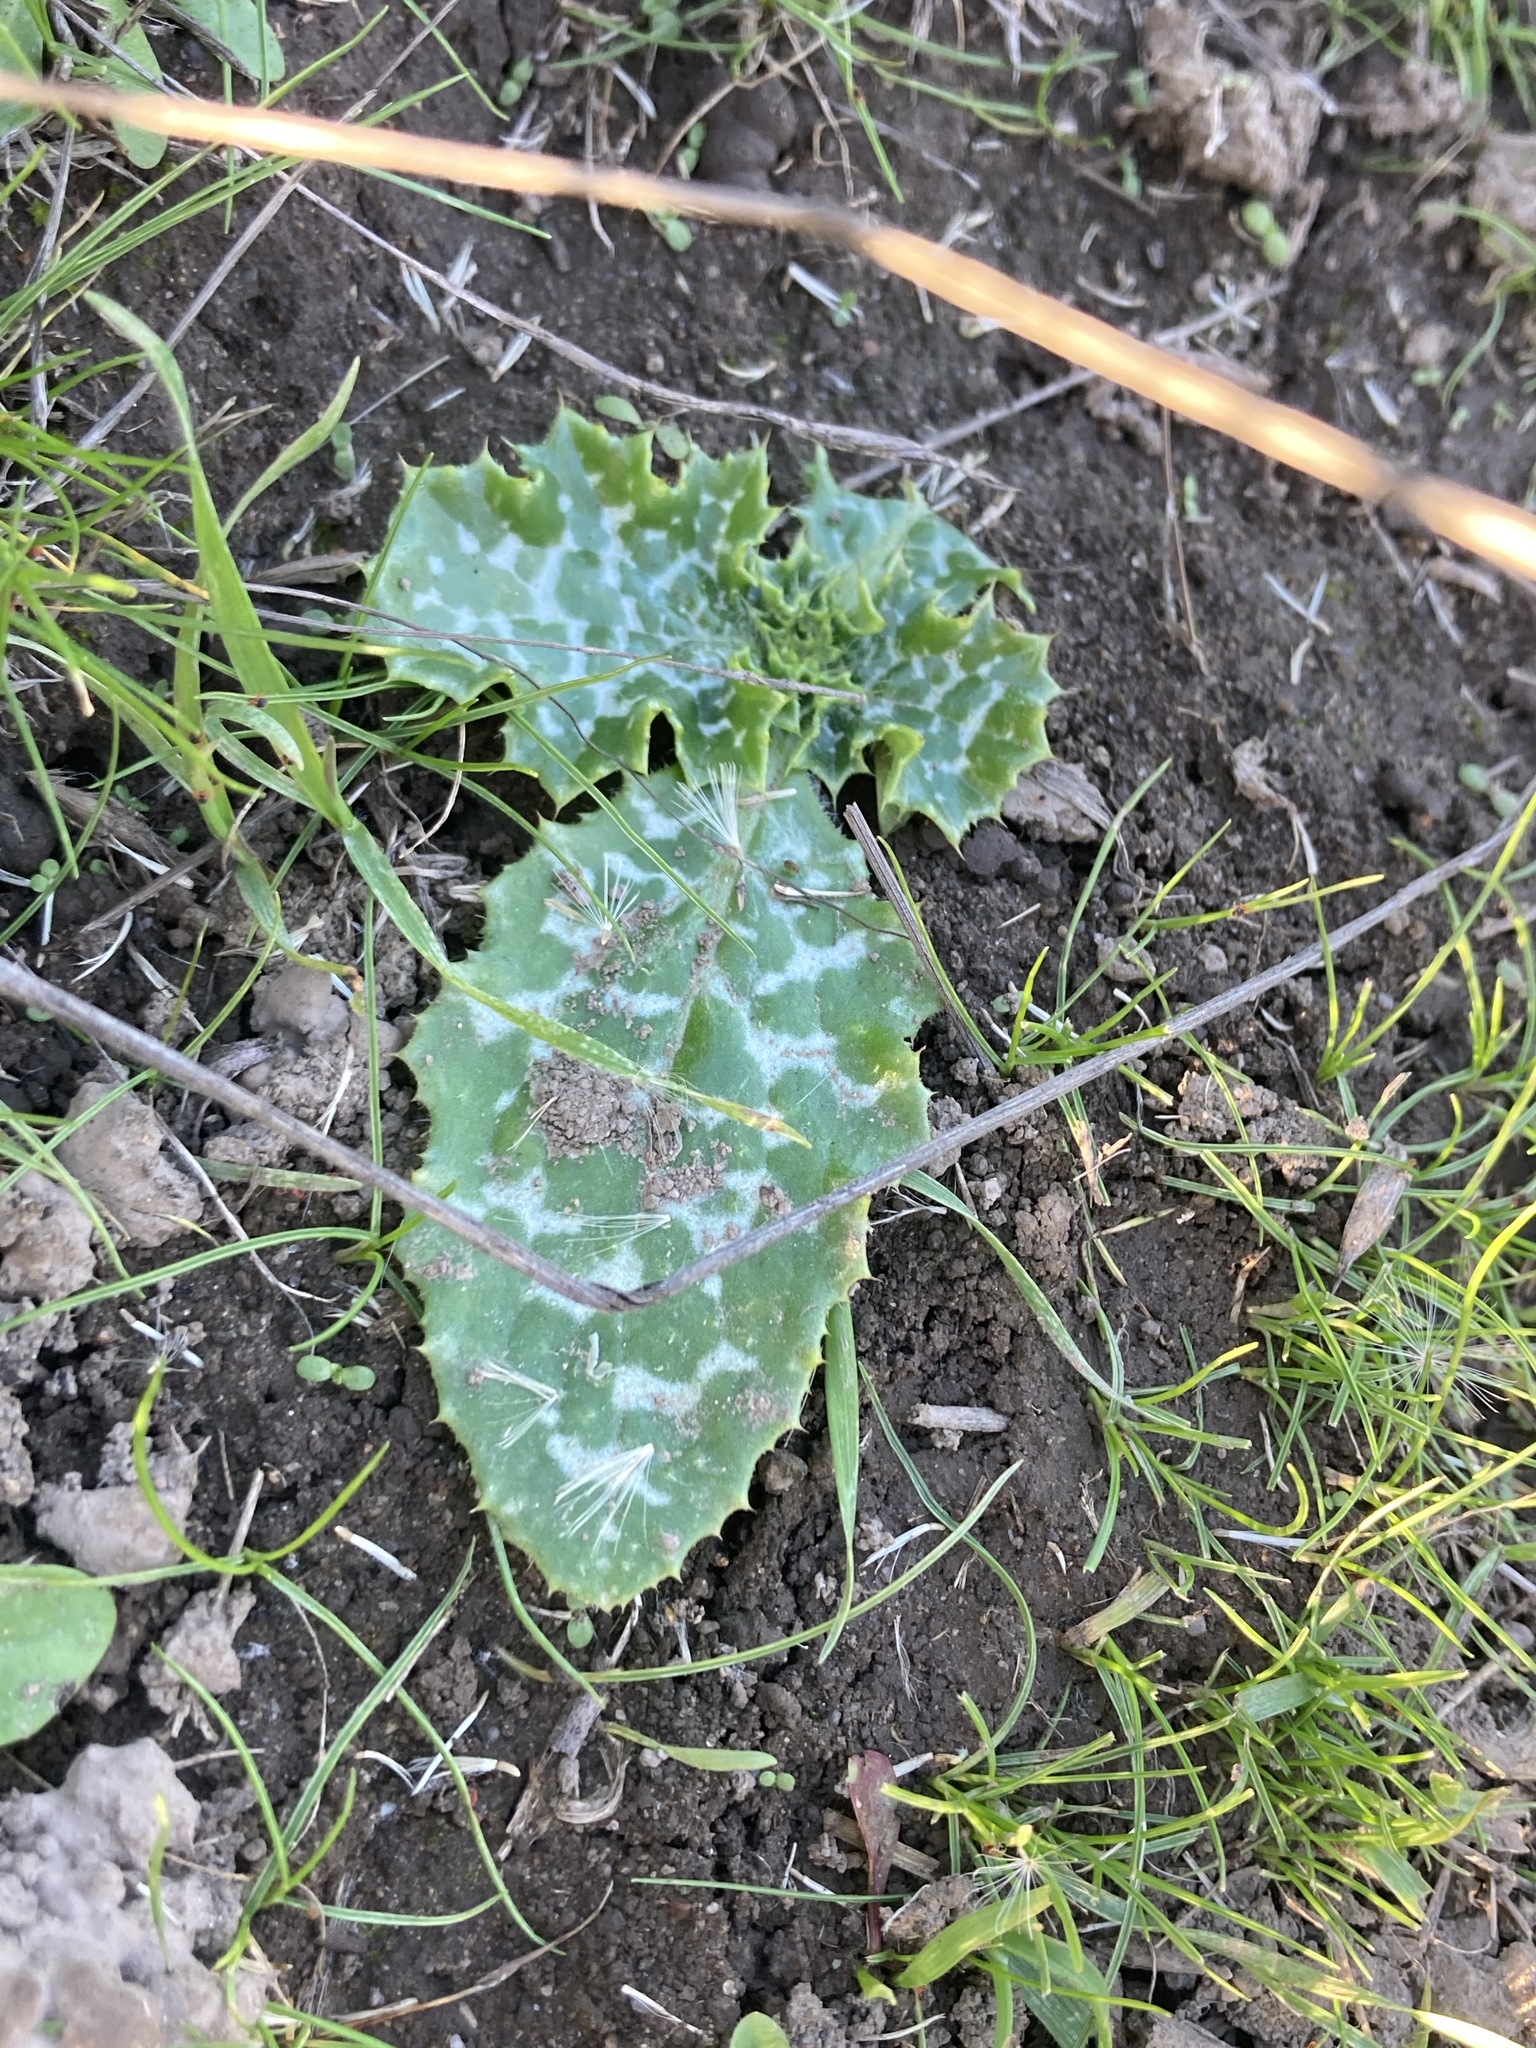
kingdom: Plantae
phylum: Tracheophyta
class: Magnoliopsida
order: Asterales
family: Asteraceae
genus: Silybum
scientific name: Silybum marianum
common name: Milk thistle
